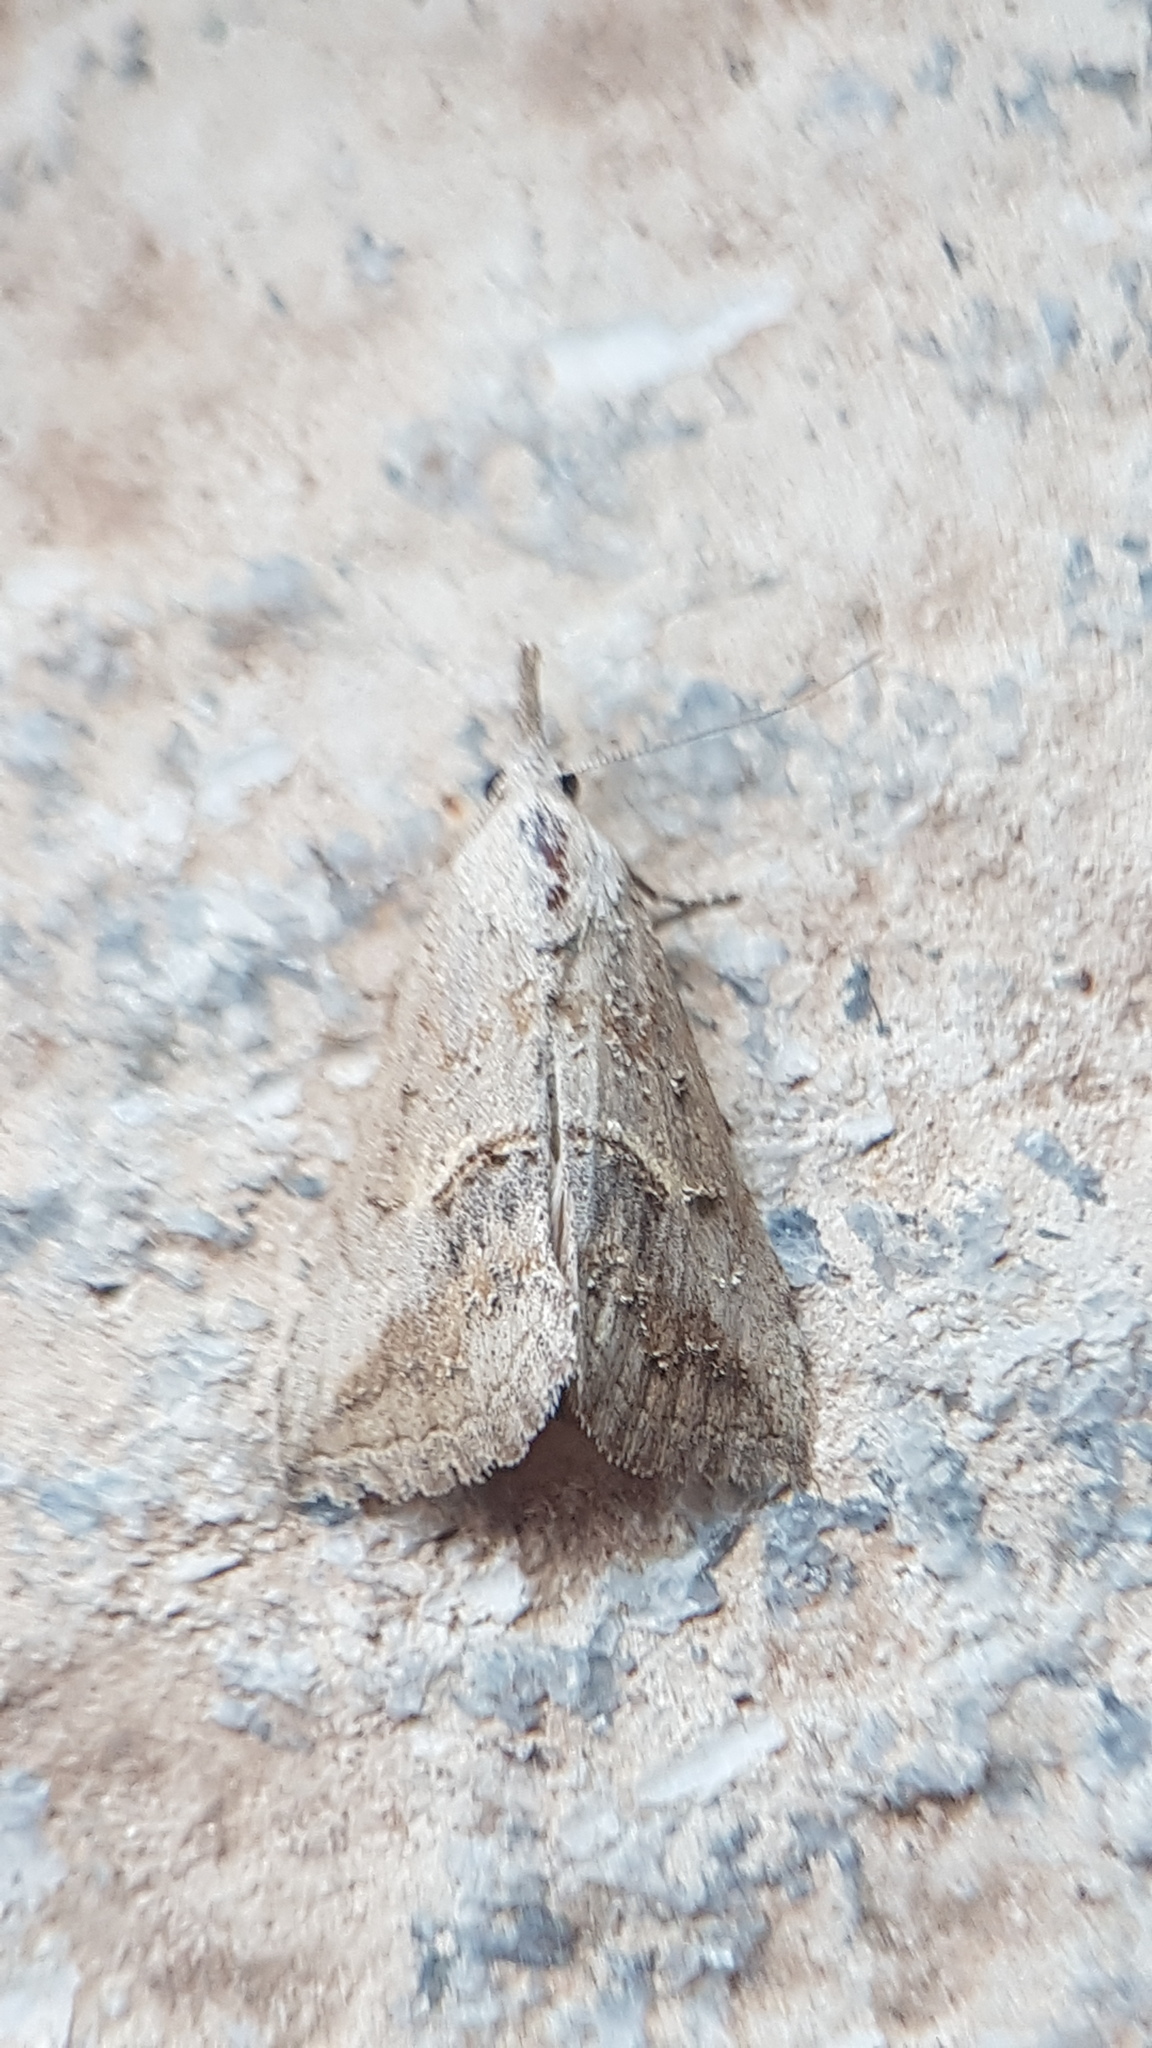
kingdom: Animalia
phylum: Arthropoda
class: Insecta
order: Lepidoptera
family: Erebidae
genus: Zekelita
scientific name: Zekelita ravalis
